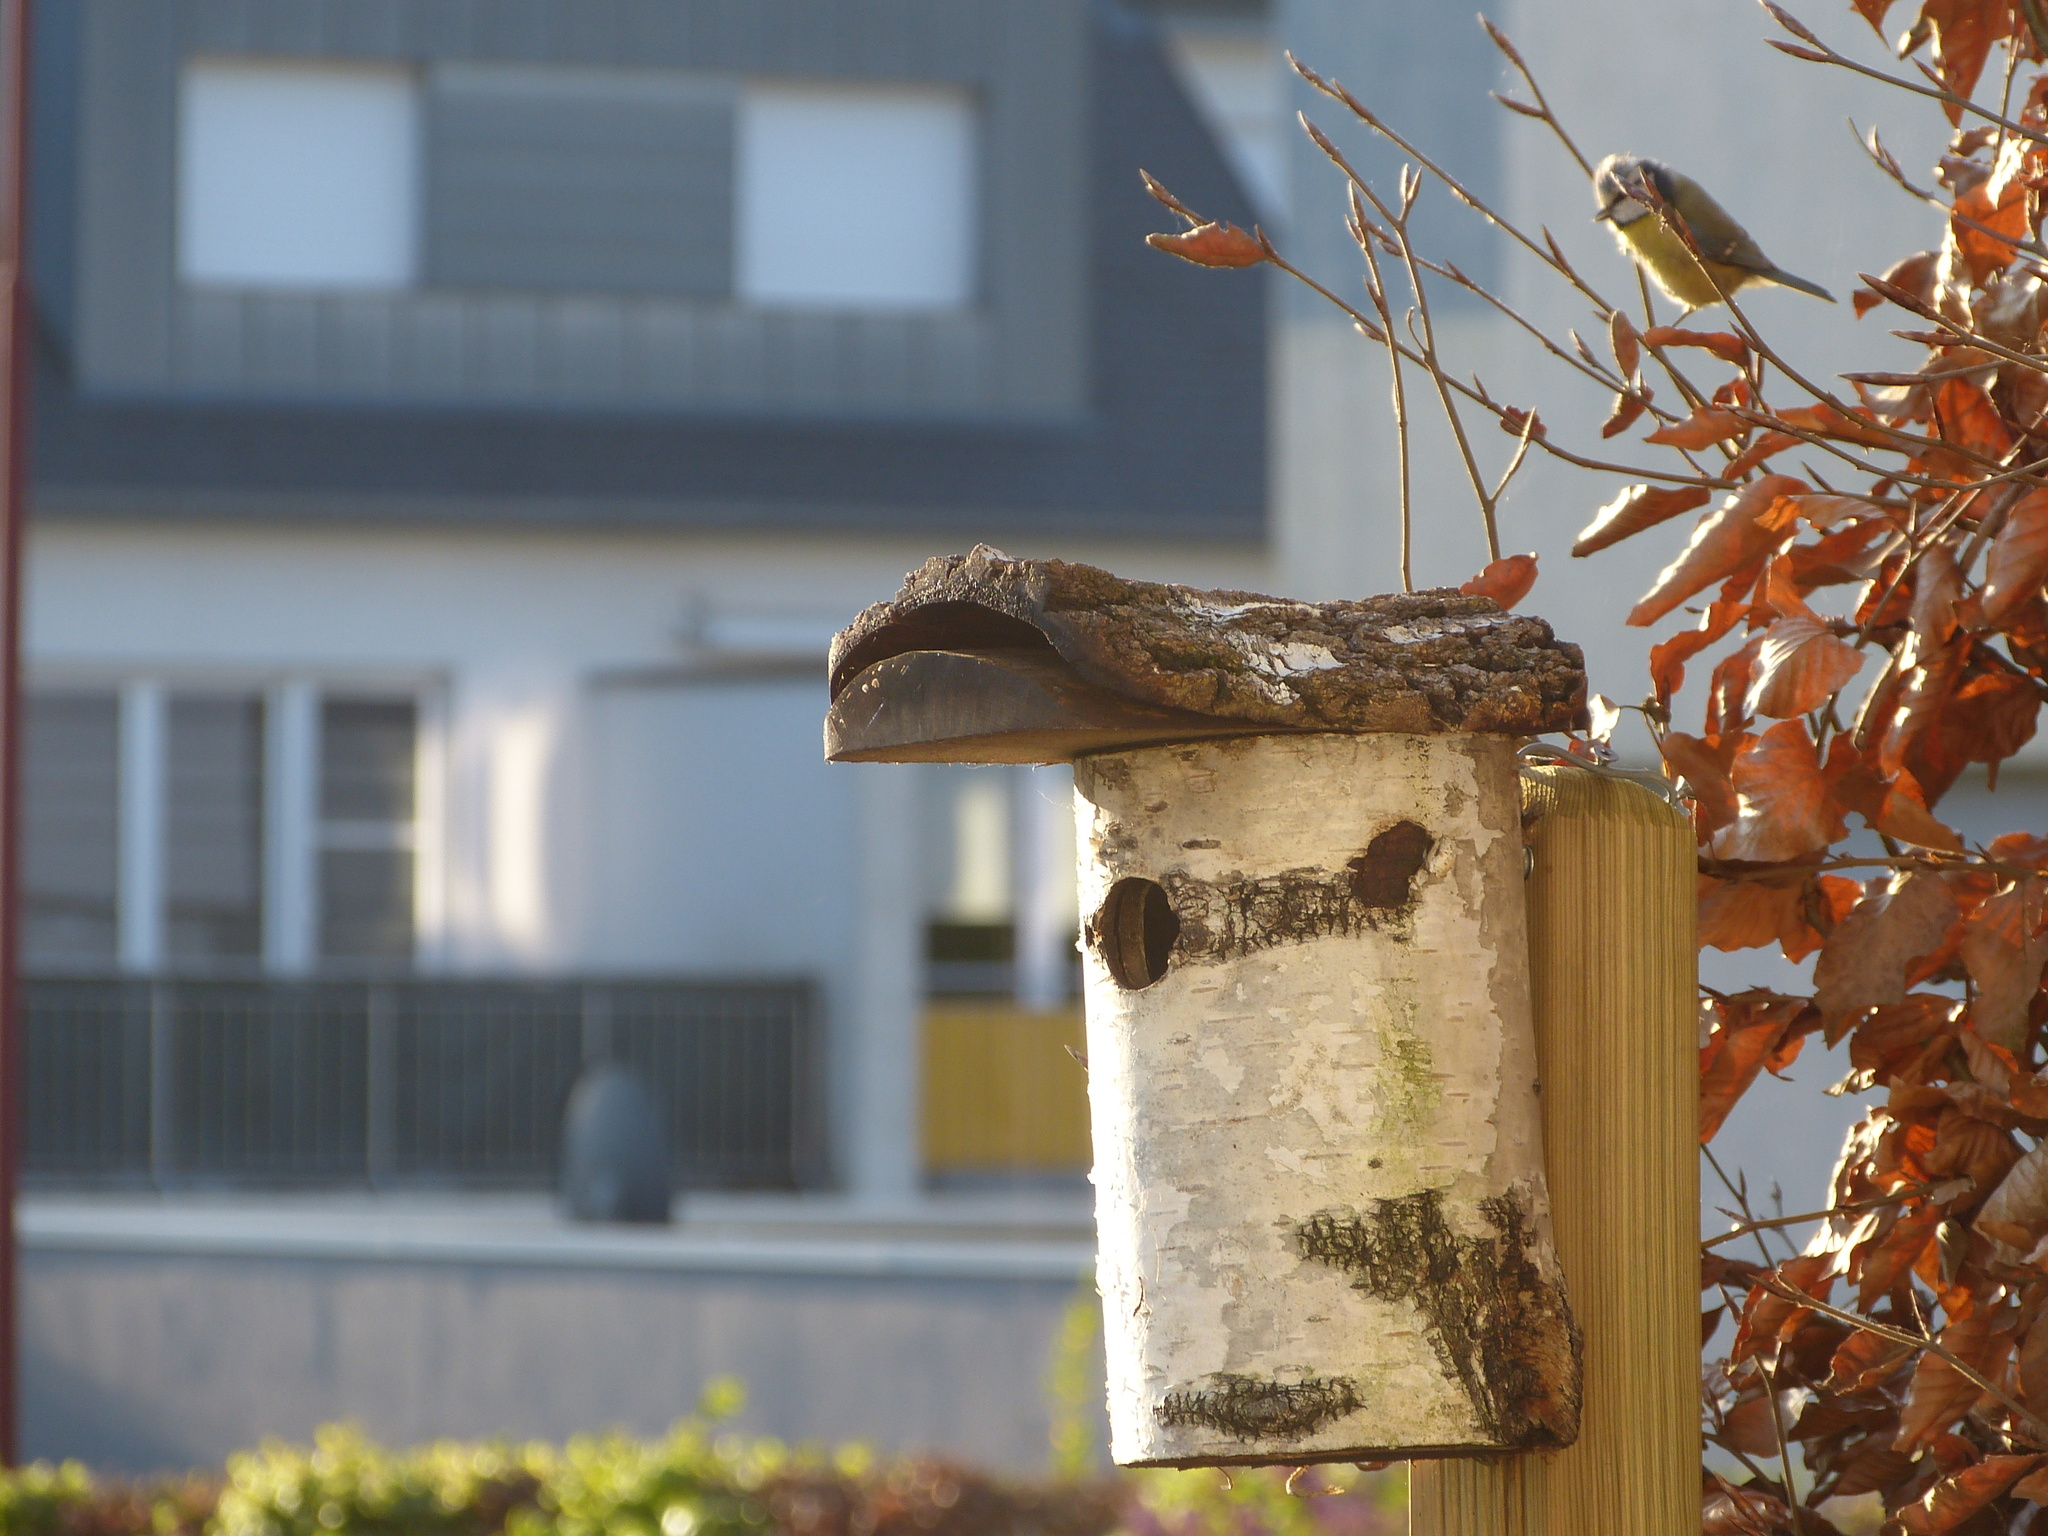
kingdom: Animalia
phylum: Chordata
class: Aves
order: Passeriformes
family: Paridae
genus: Cyanistes
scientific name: Cyanistes caeruleus
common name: Eurasian blue tit
